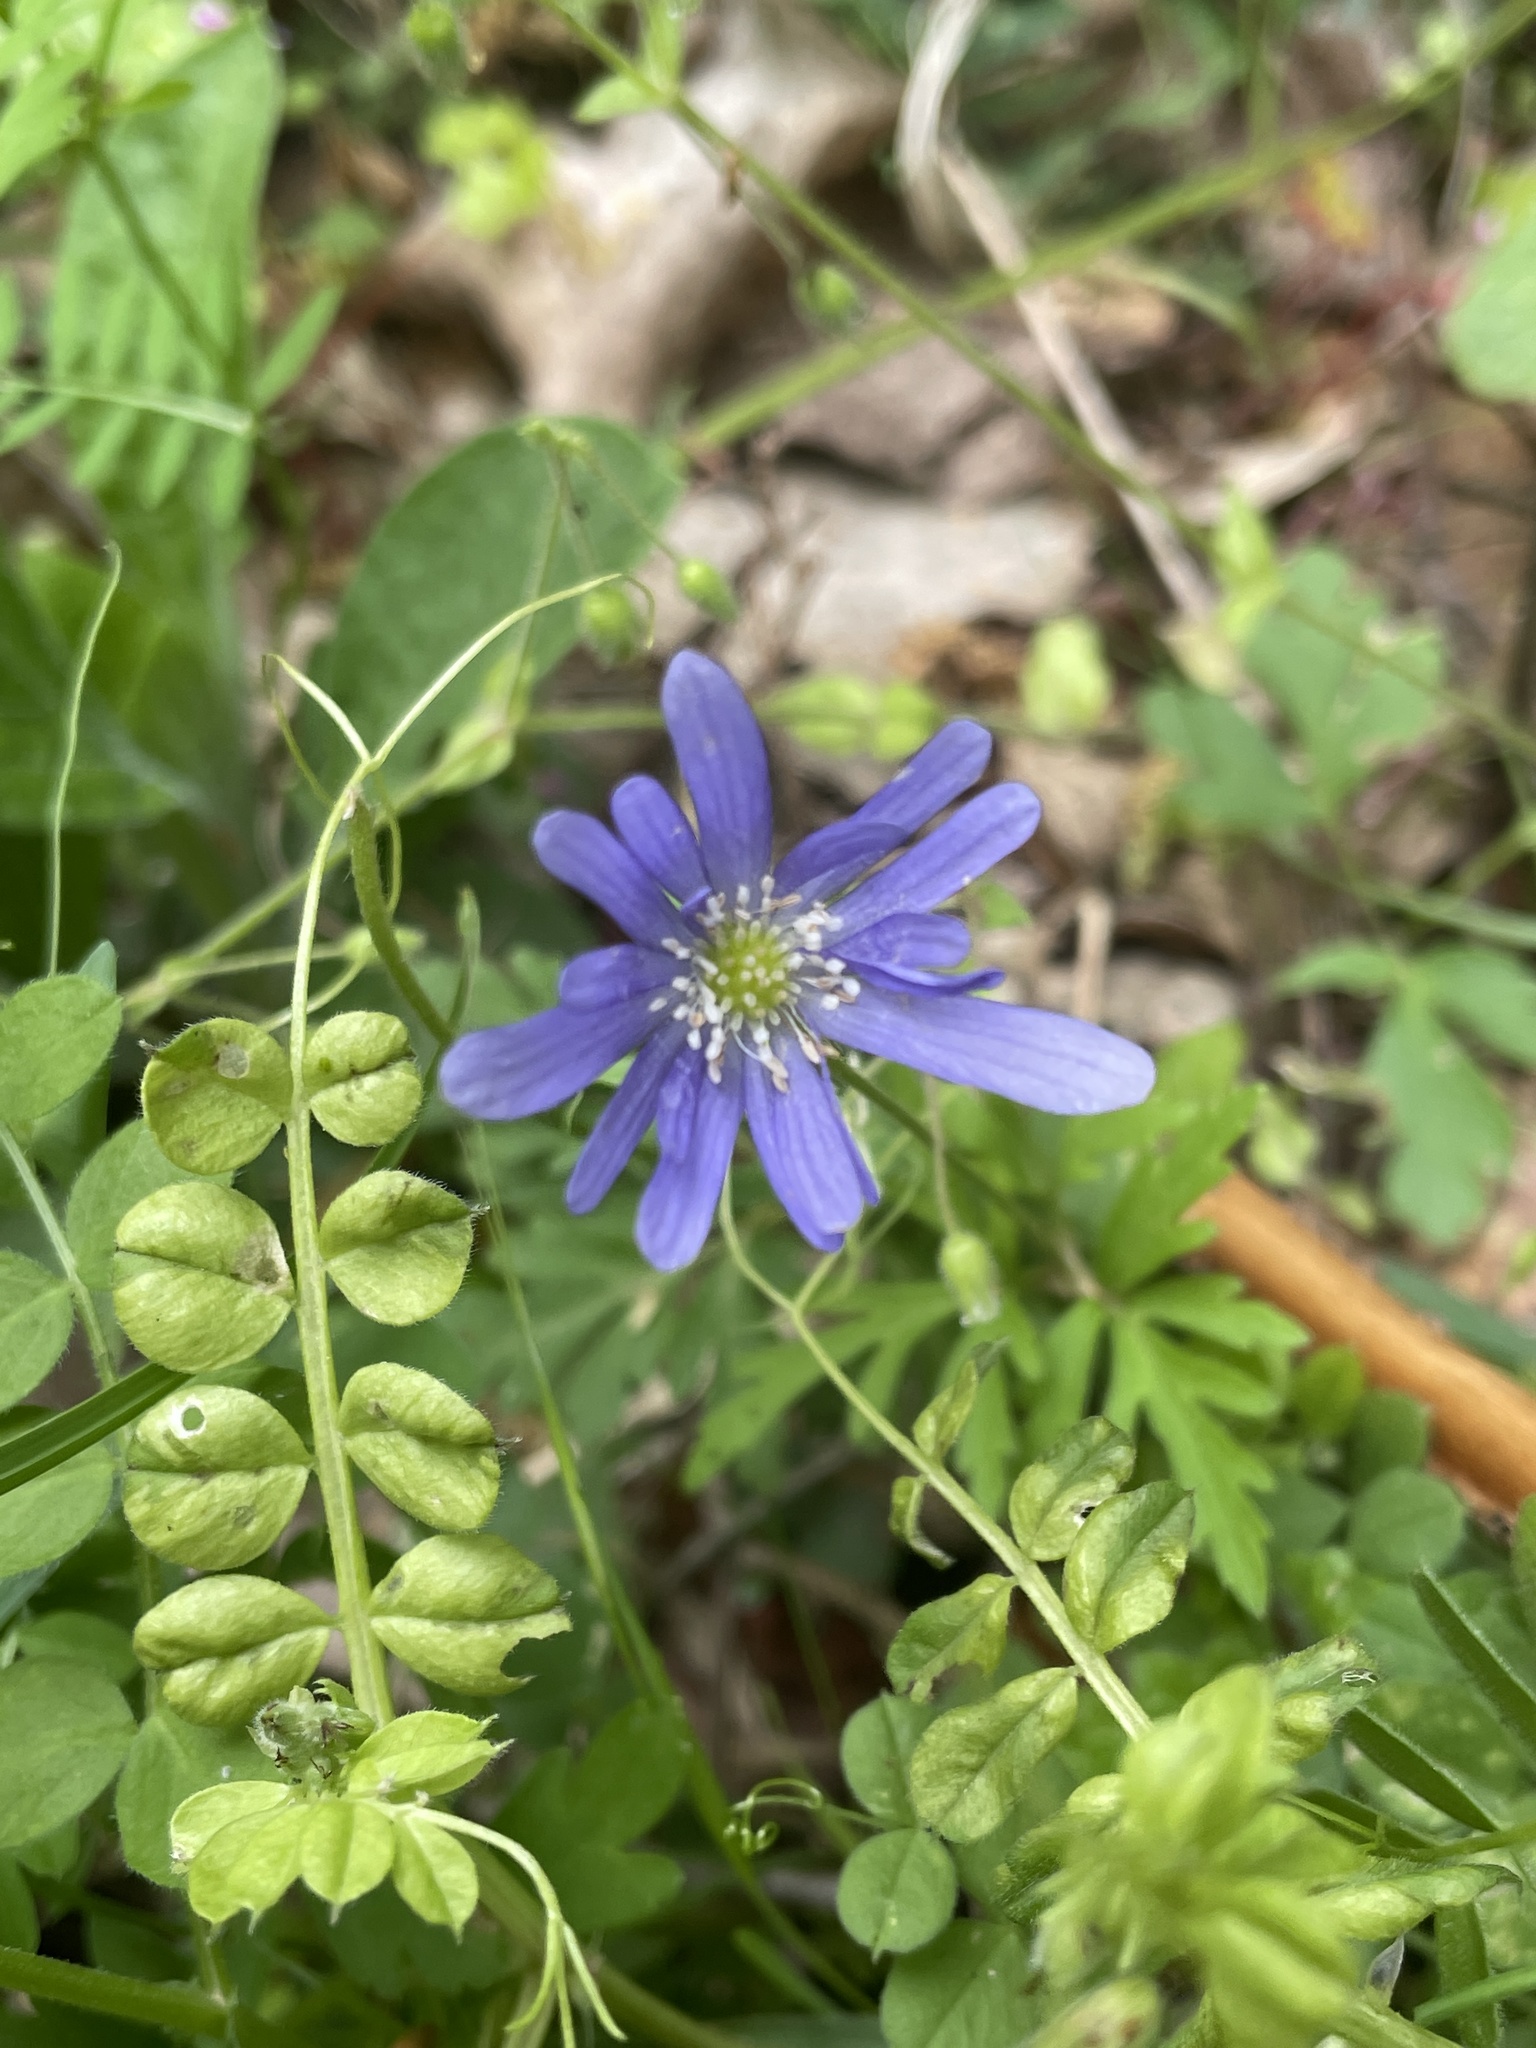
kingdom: Plantae
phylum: Tracheophyta
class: Magnoliopsida
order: Ranunculales
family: Ranunculaceae
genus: Anemone
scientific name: Anemone blanda
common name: Balkan anemone
